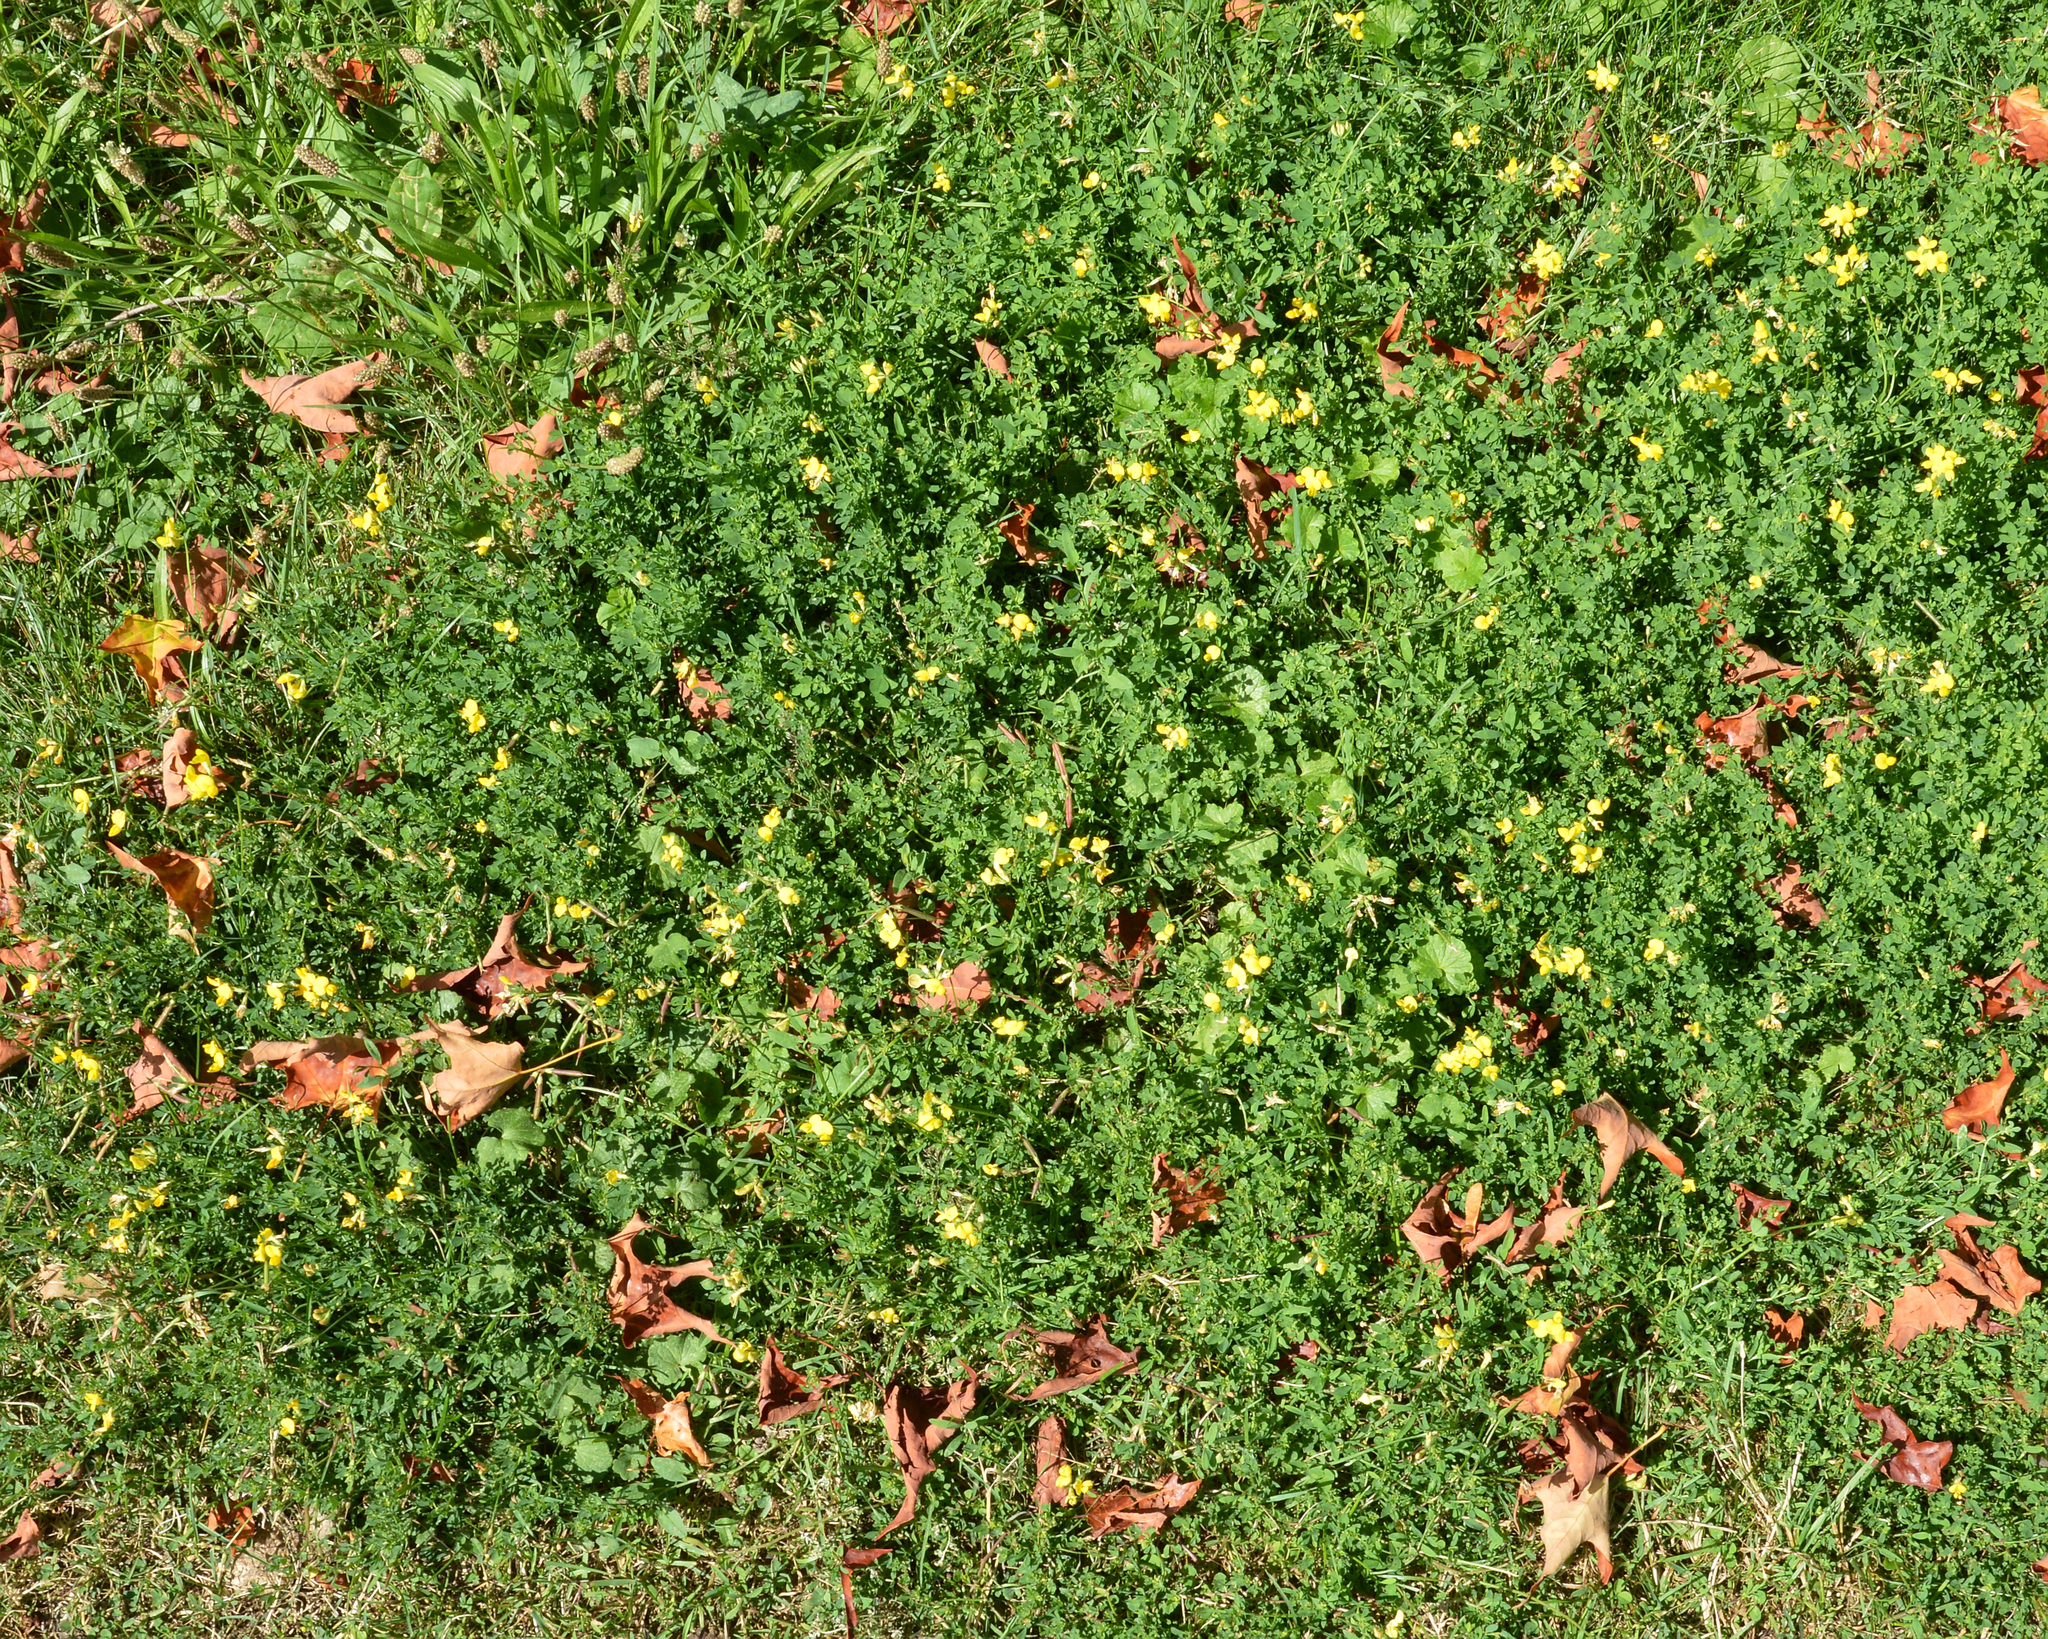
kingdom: Plantae
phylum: Tracheophyta
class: Magnoliopsida
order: Fabales
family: Fabaceae
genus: Lotus
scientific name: Lotus corniculatus
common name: Common bird's-foot-trefoil
